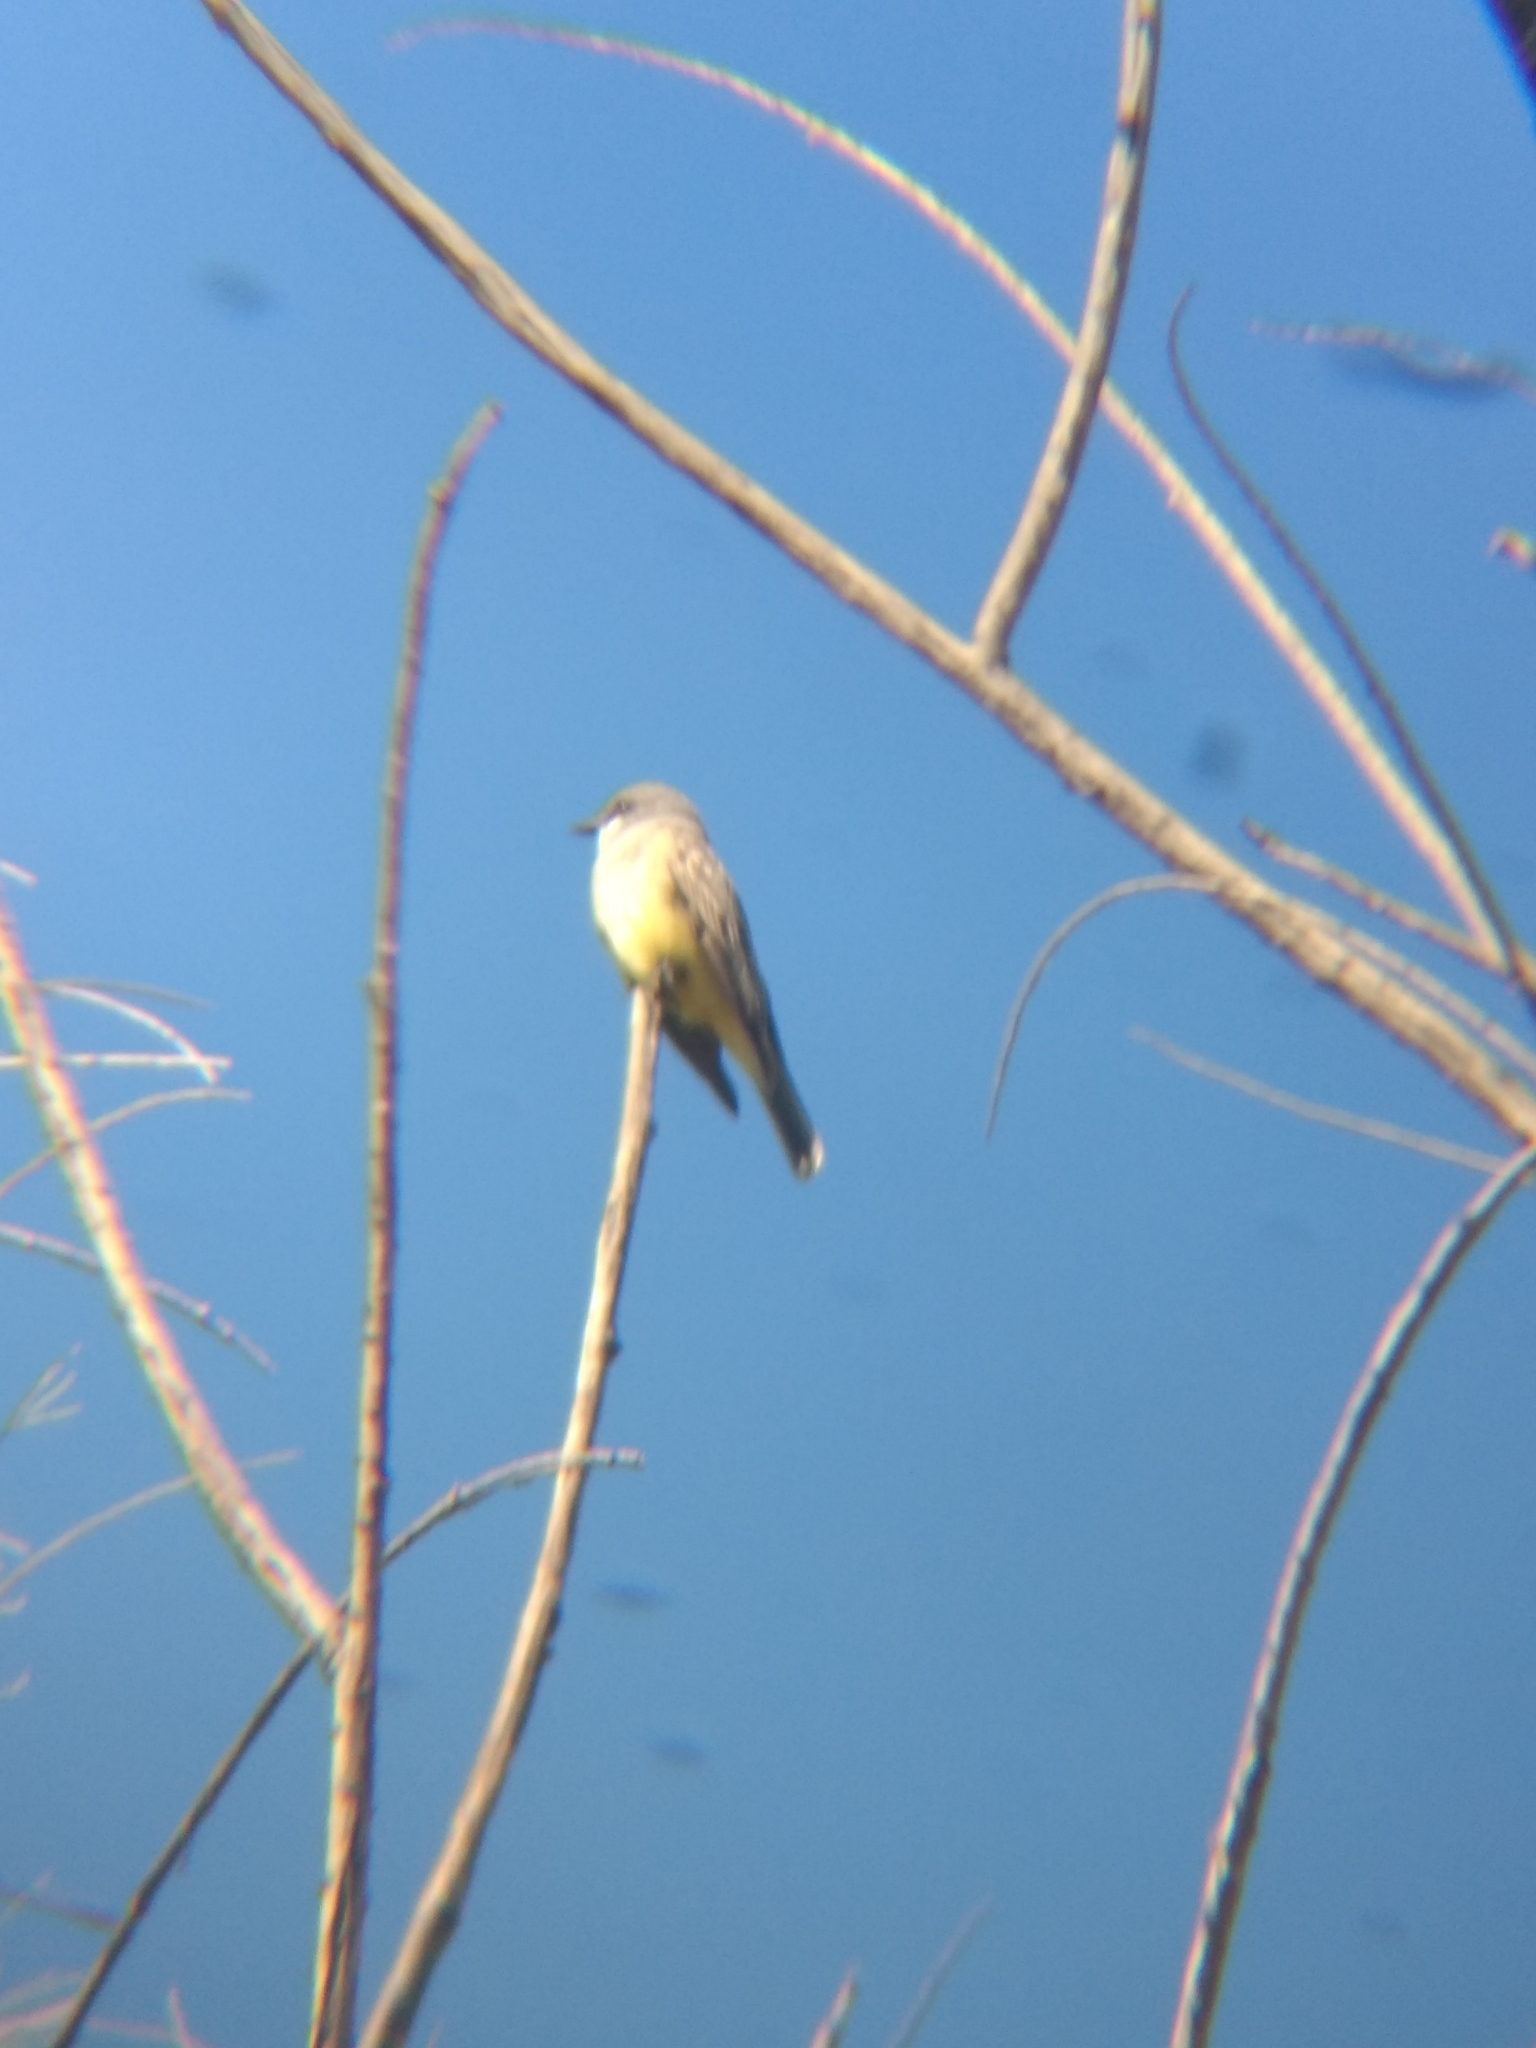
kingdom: Animalia
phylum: Chordata
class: Aves
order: Passeriformes
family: Tyrannidae
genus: Tyrannus
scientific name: Tyrannus vociferans
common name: Cassin's kingbird
